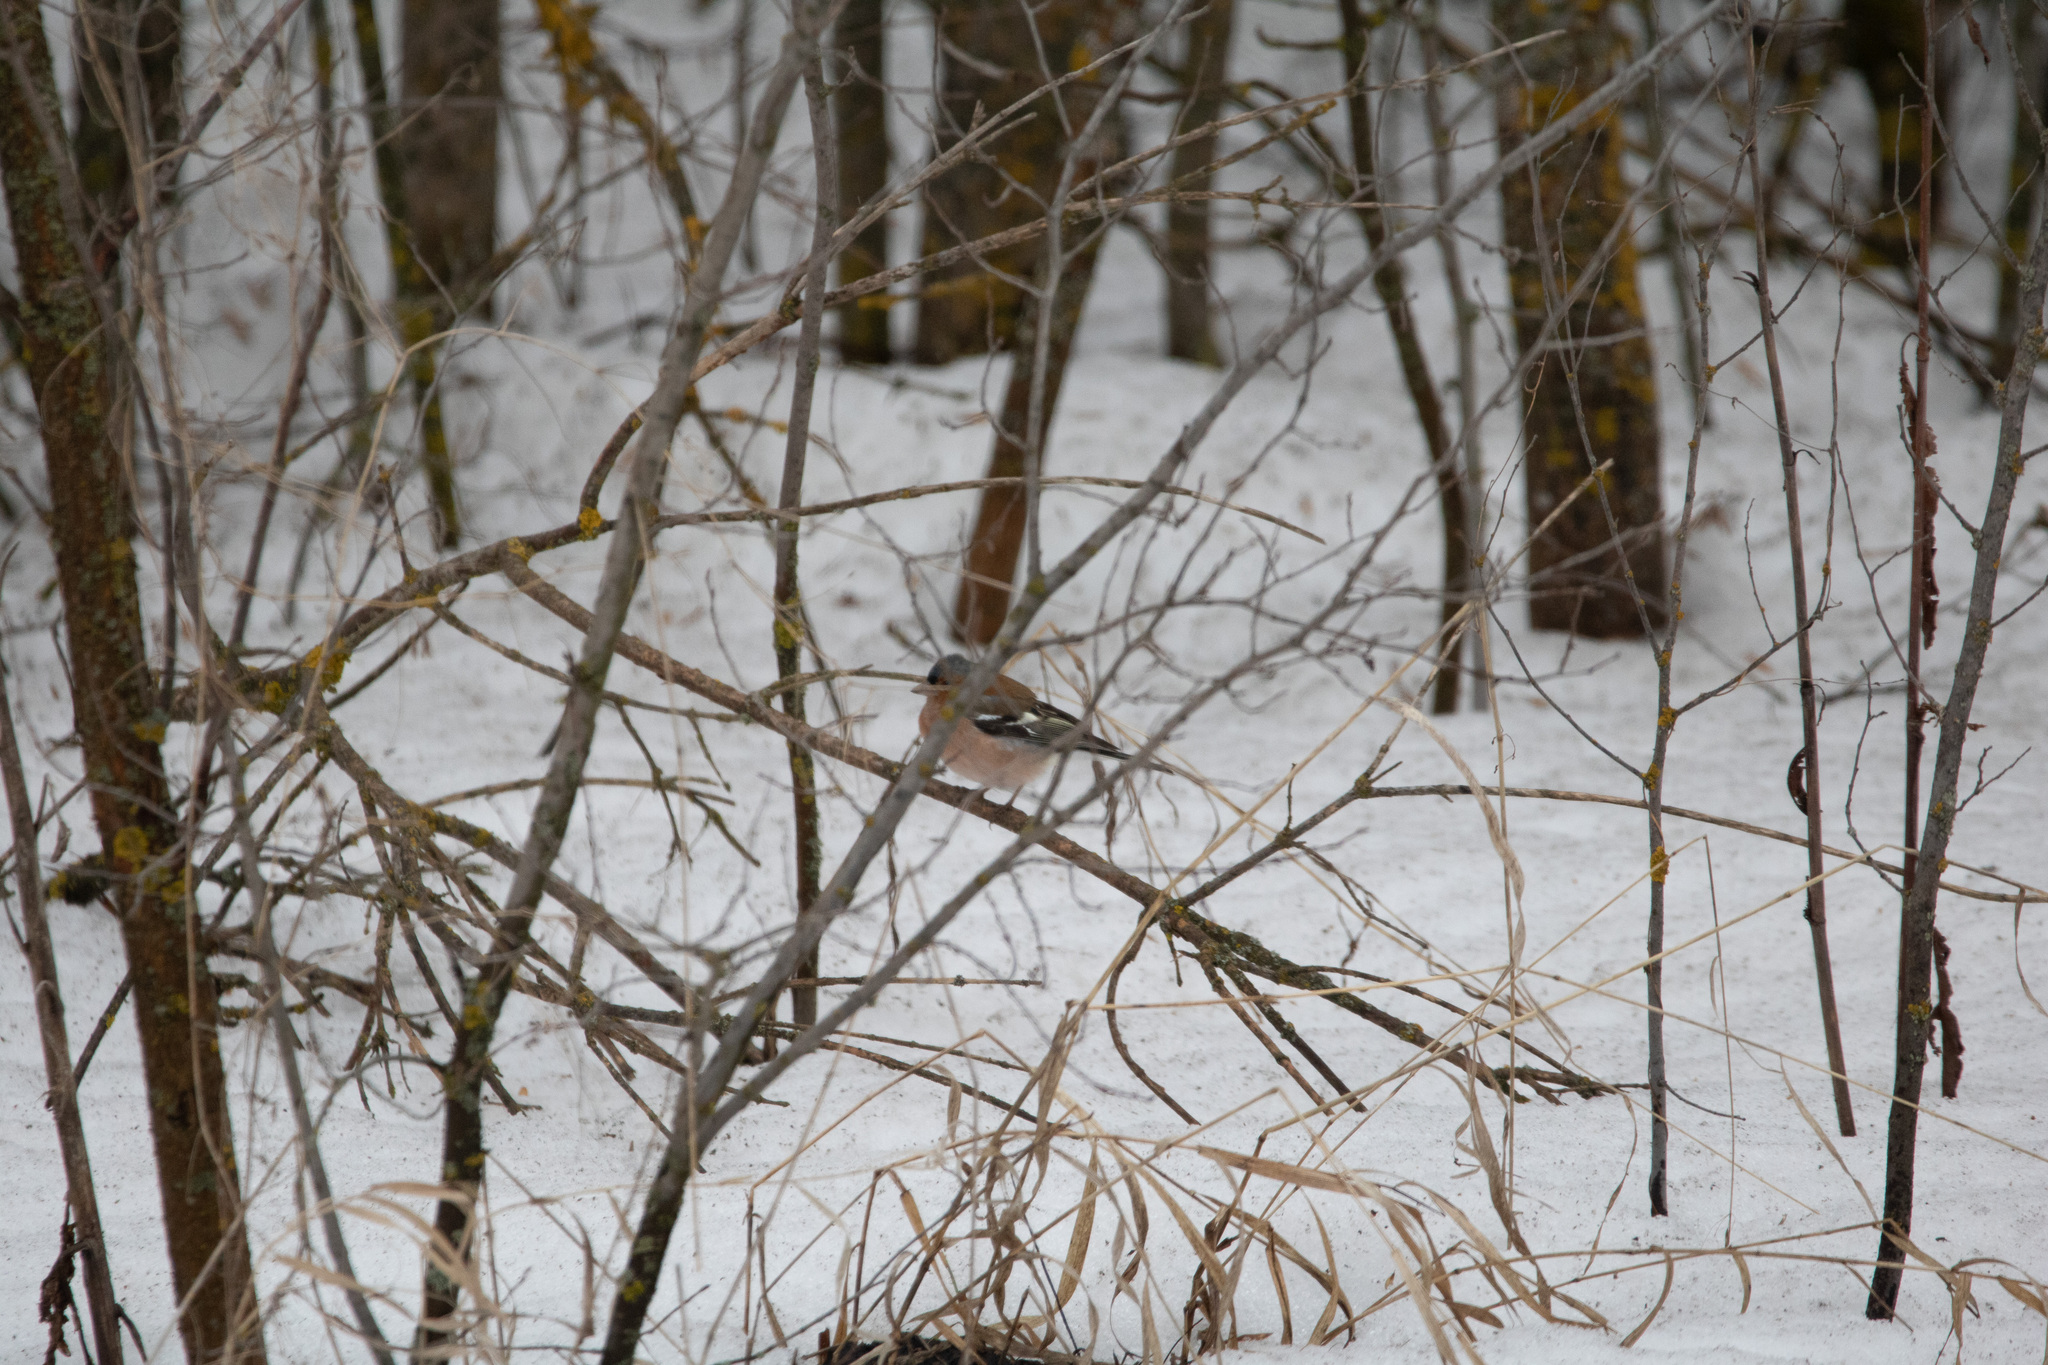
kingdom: Animalia
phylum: Chordata
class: Aves
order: Passeriformes
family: Fringillidae
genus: Fringilla
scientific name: Fringilla coelebs
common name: Common chaffinch
